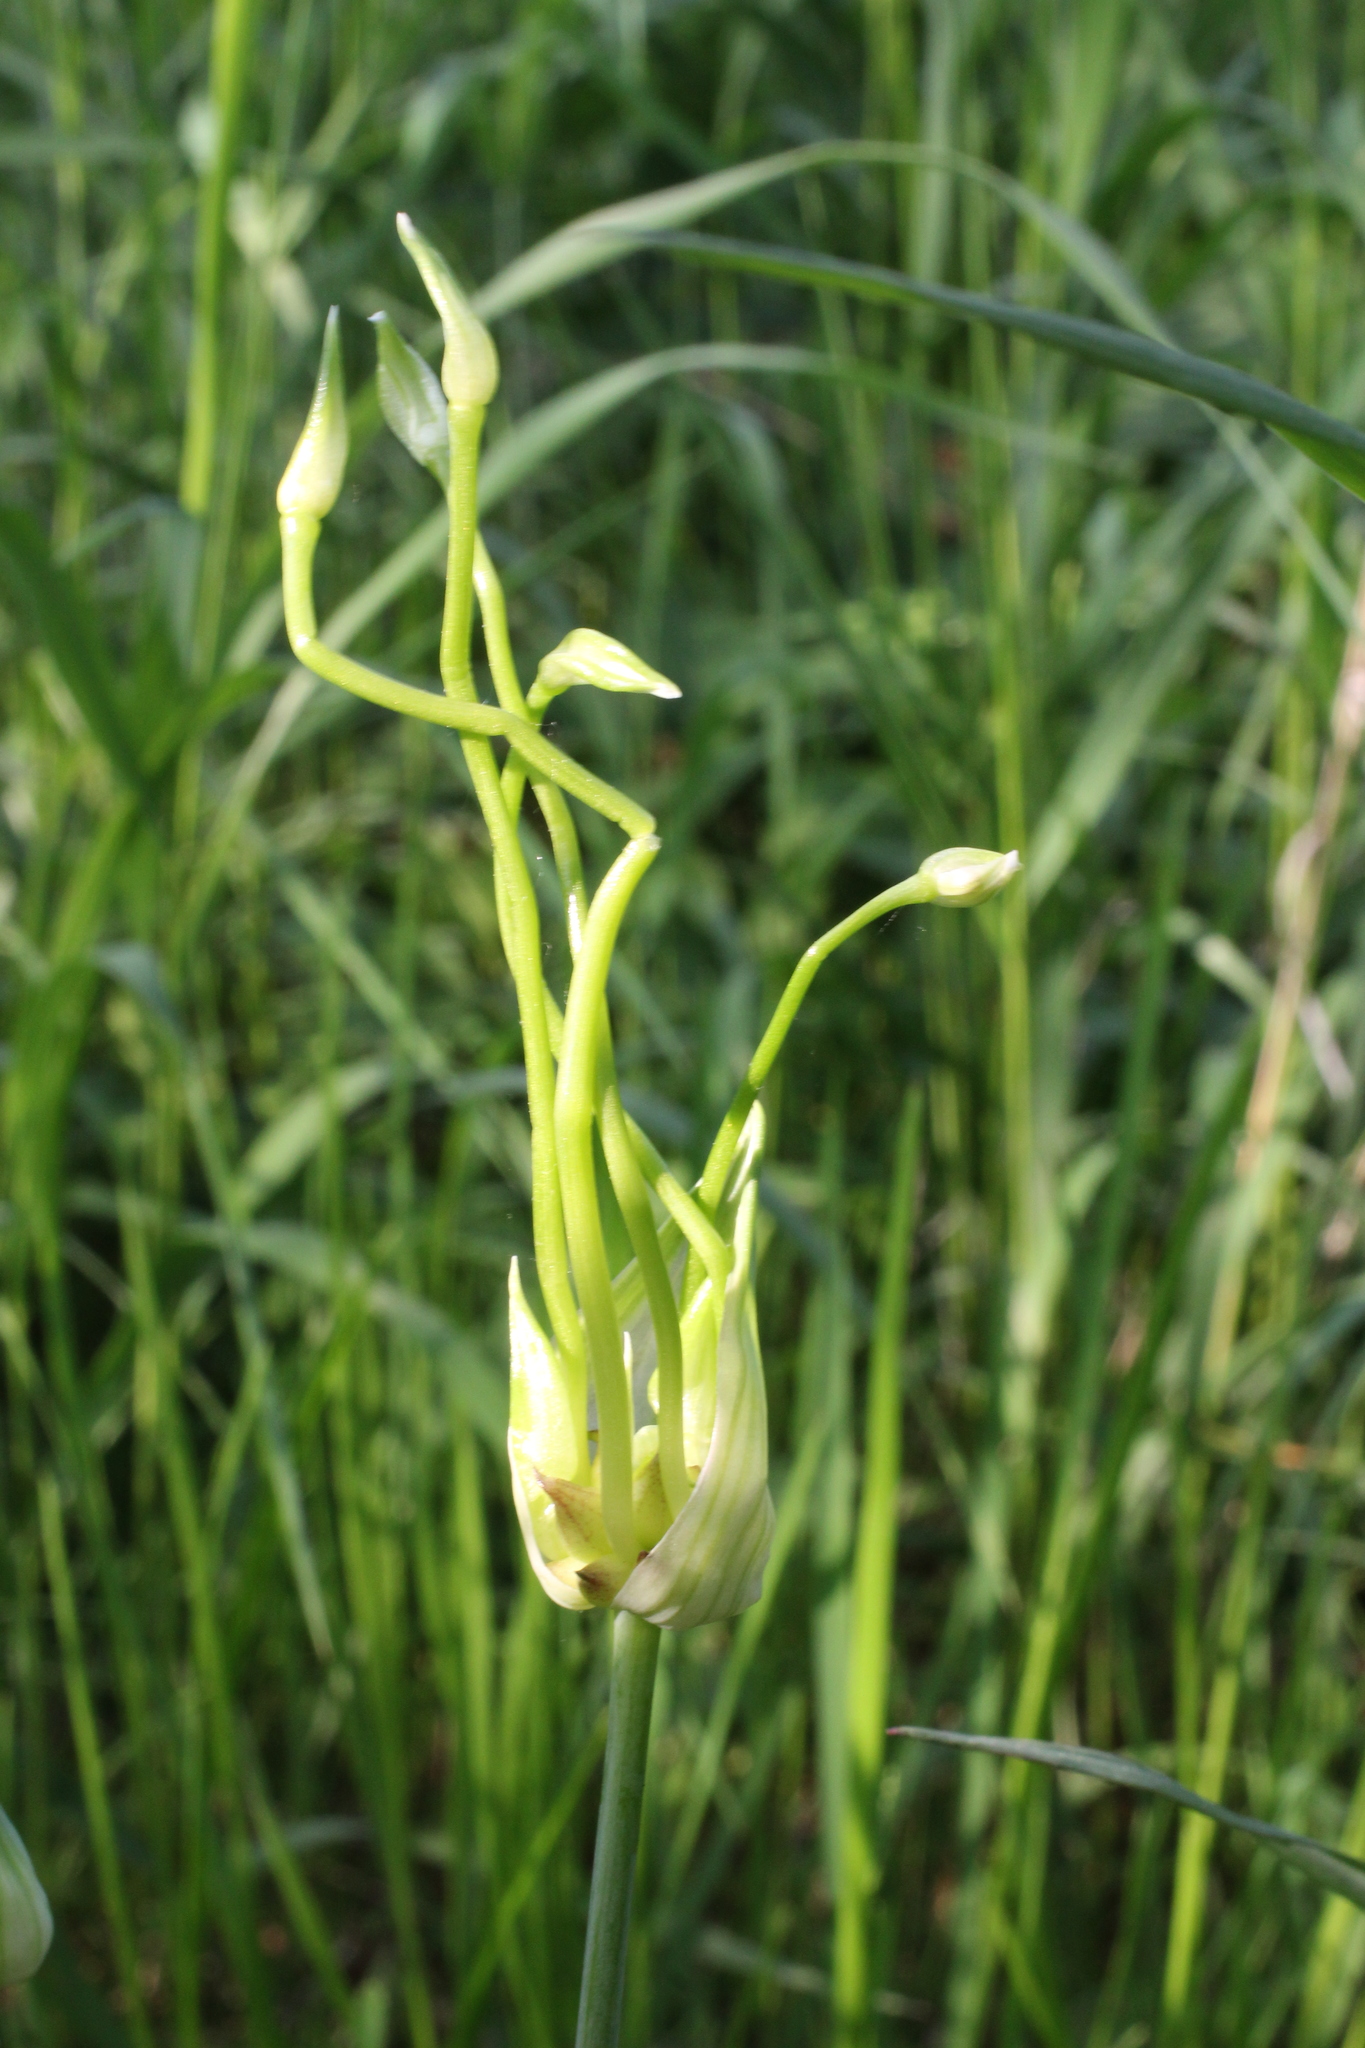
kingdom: Plantae
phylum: Tracheophyta
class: Liliopsida
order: Asparagales
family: Amaryllidaceae
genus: Allium
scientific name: Allium canadense
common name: Meadow garlic
